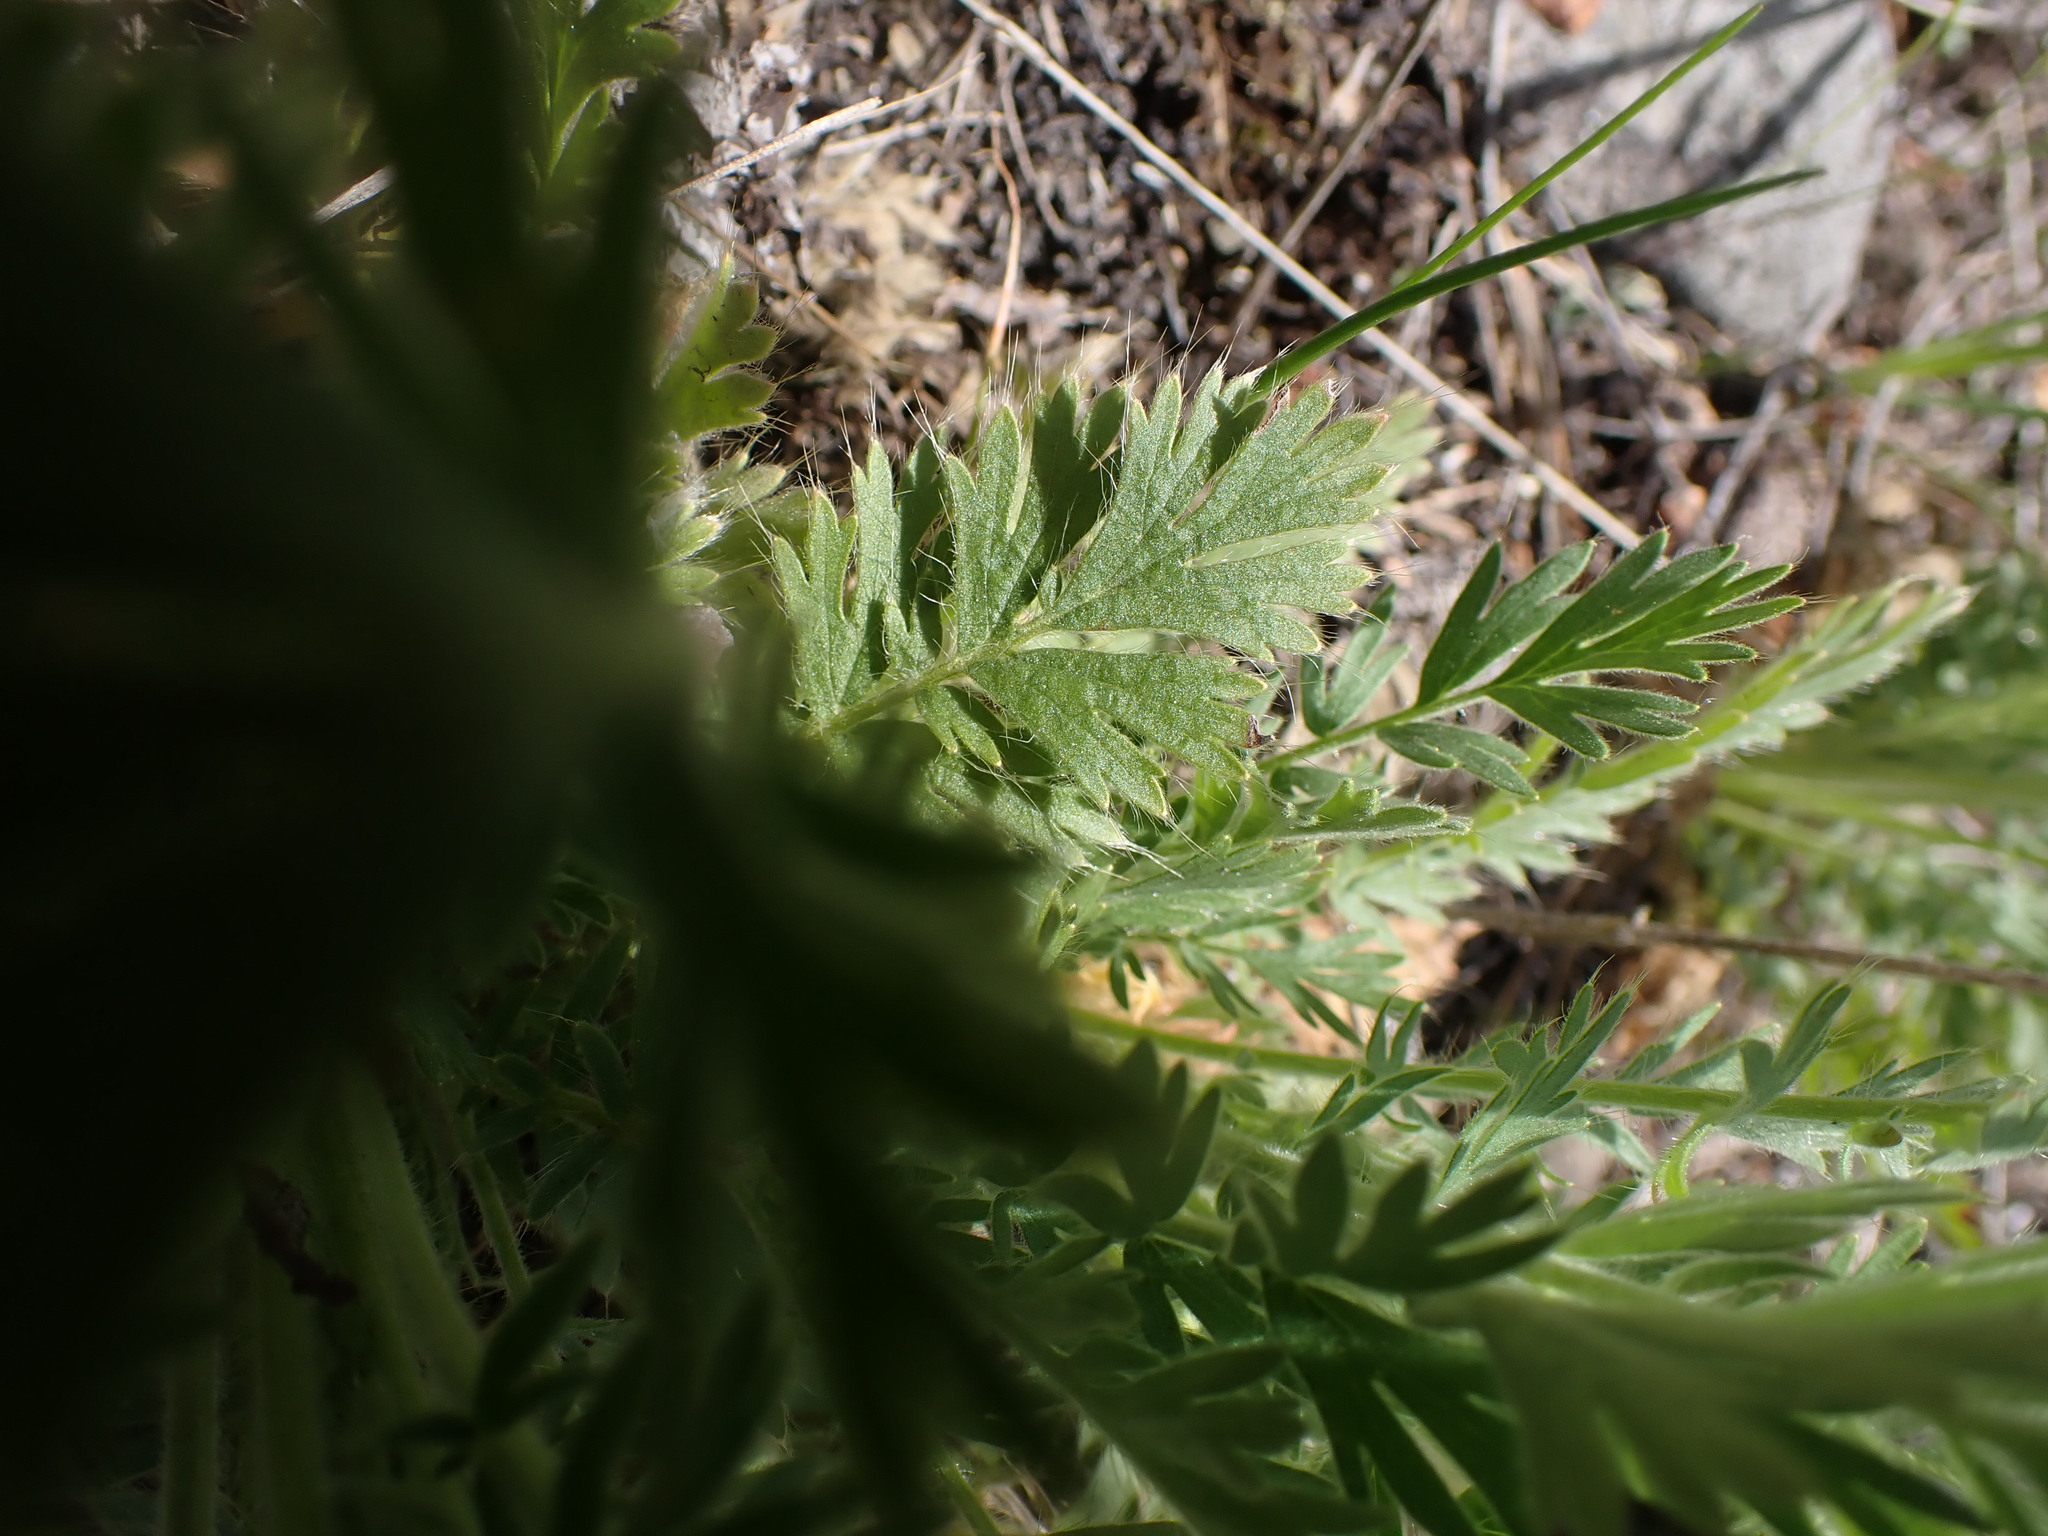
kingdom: Plantae
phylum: Tracheophyta
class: Magnoliopsida
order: Rosales
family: Rosaceae
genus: Geum
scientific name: Geum triflorum
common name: Old man's whiskers
